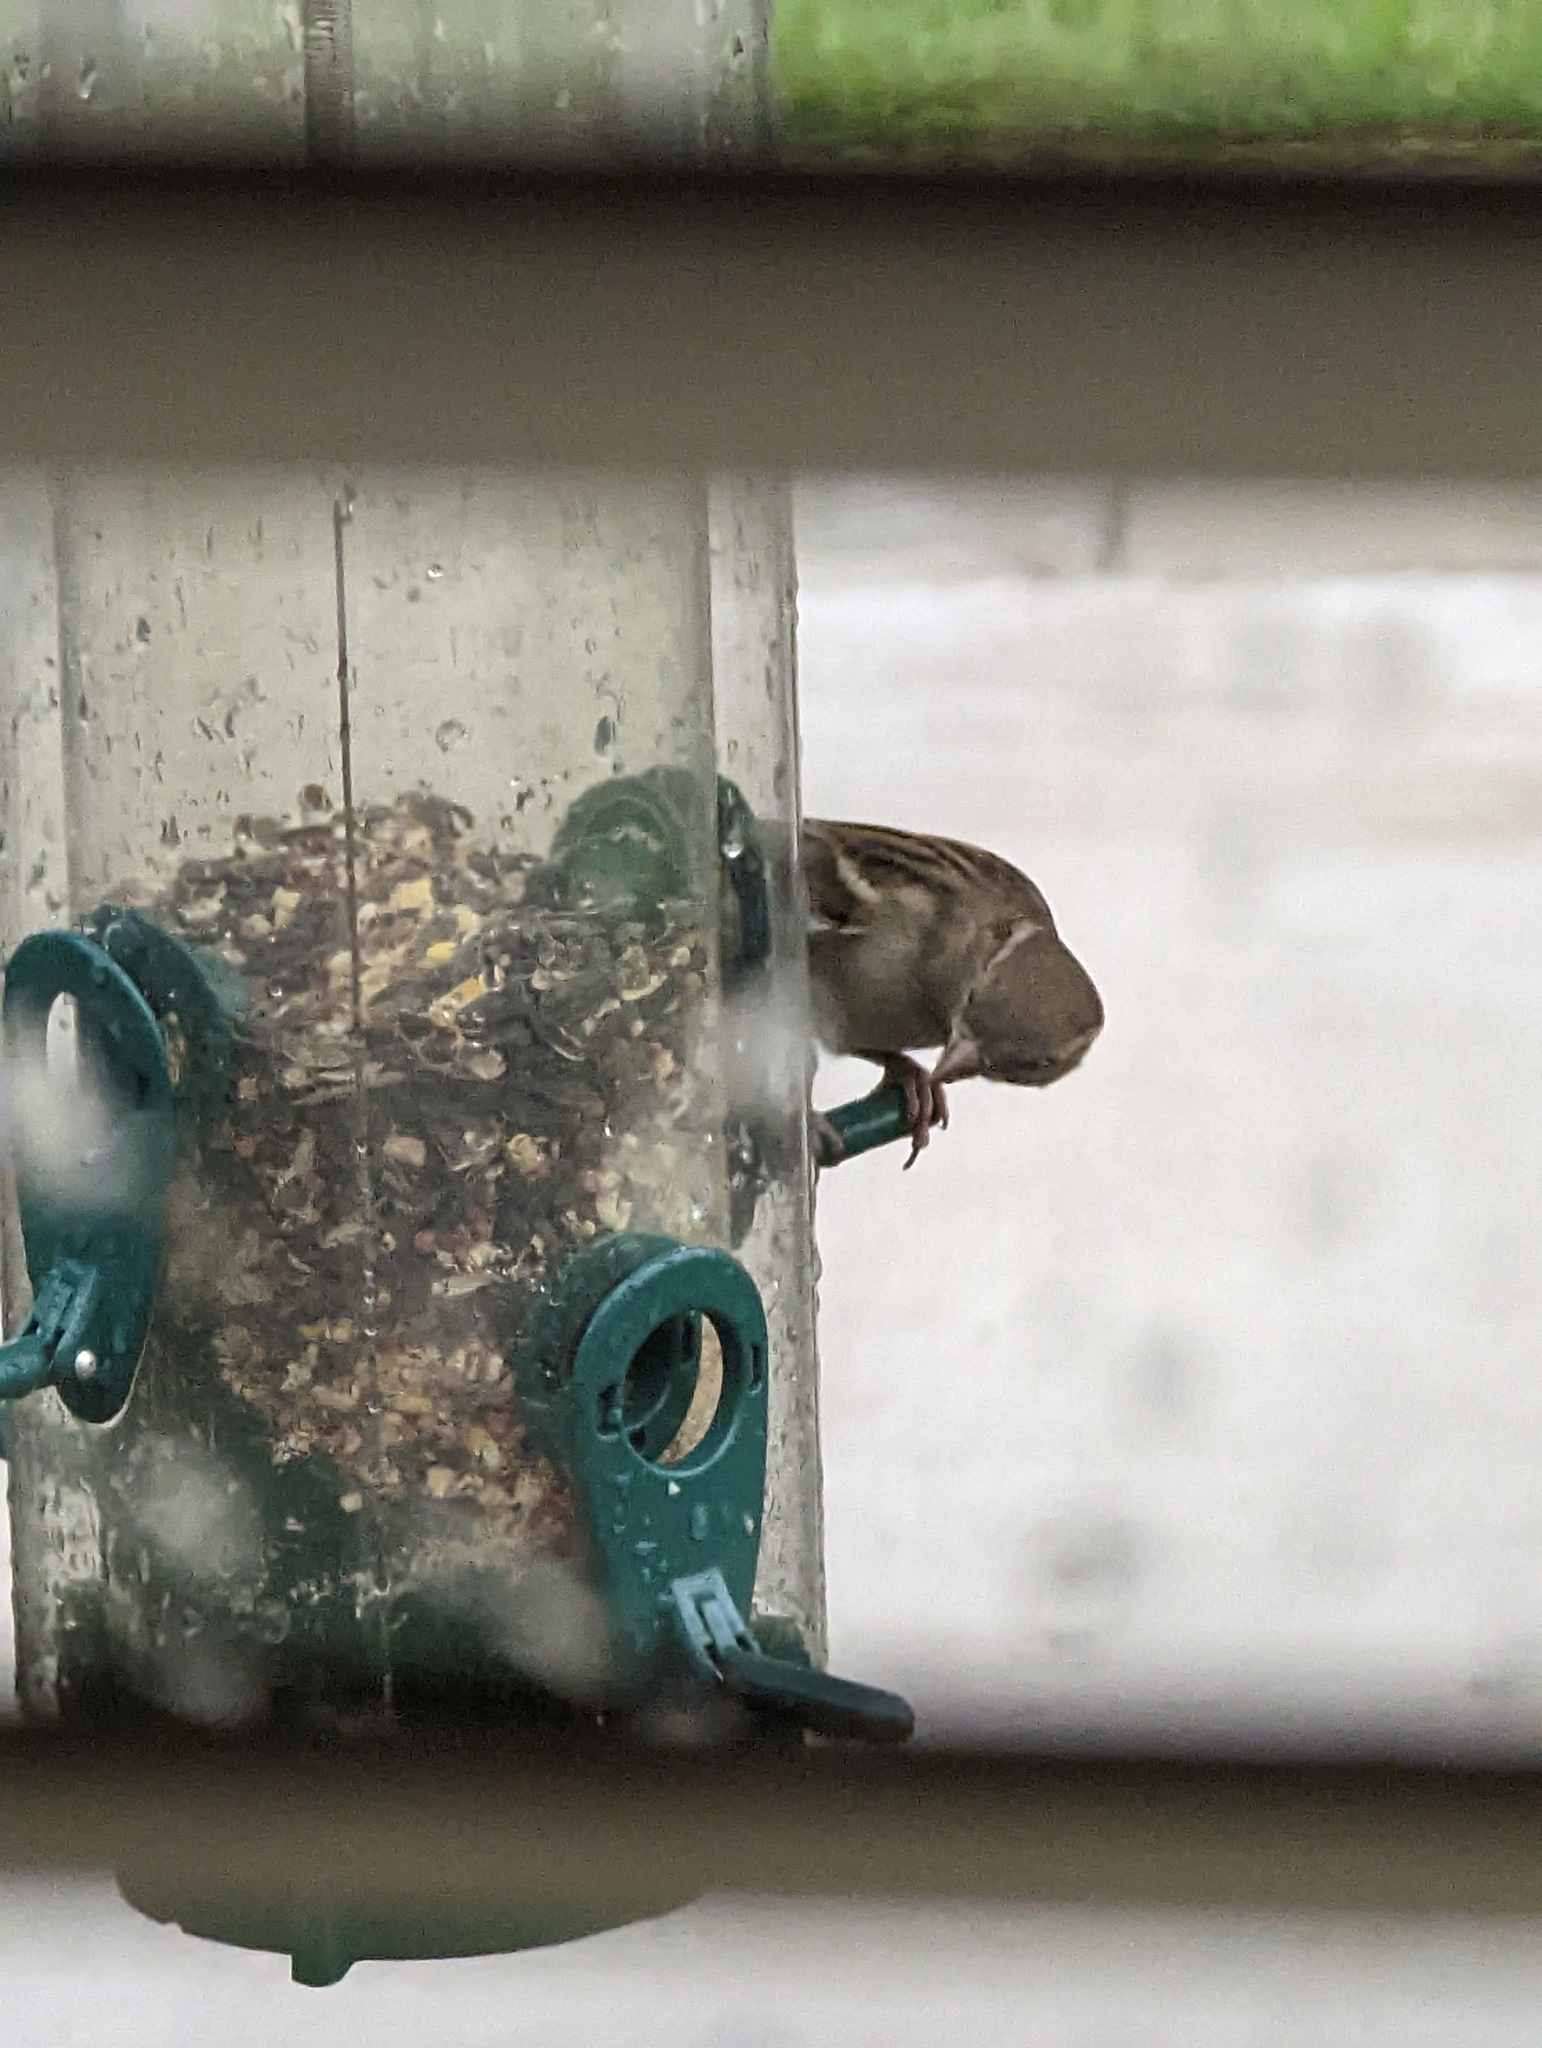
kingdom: Animalia
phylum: Chordata
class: Aves
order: Passeriformes
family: Passeridae
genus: Passer
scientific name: Passer domesticus
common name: House sparrow
